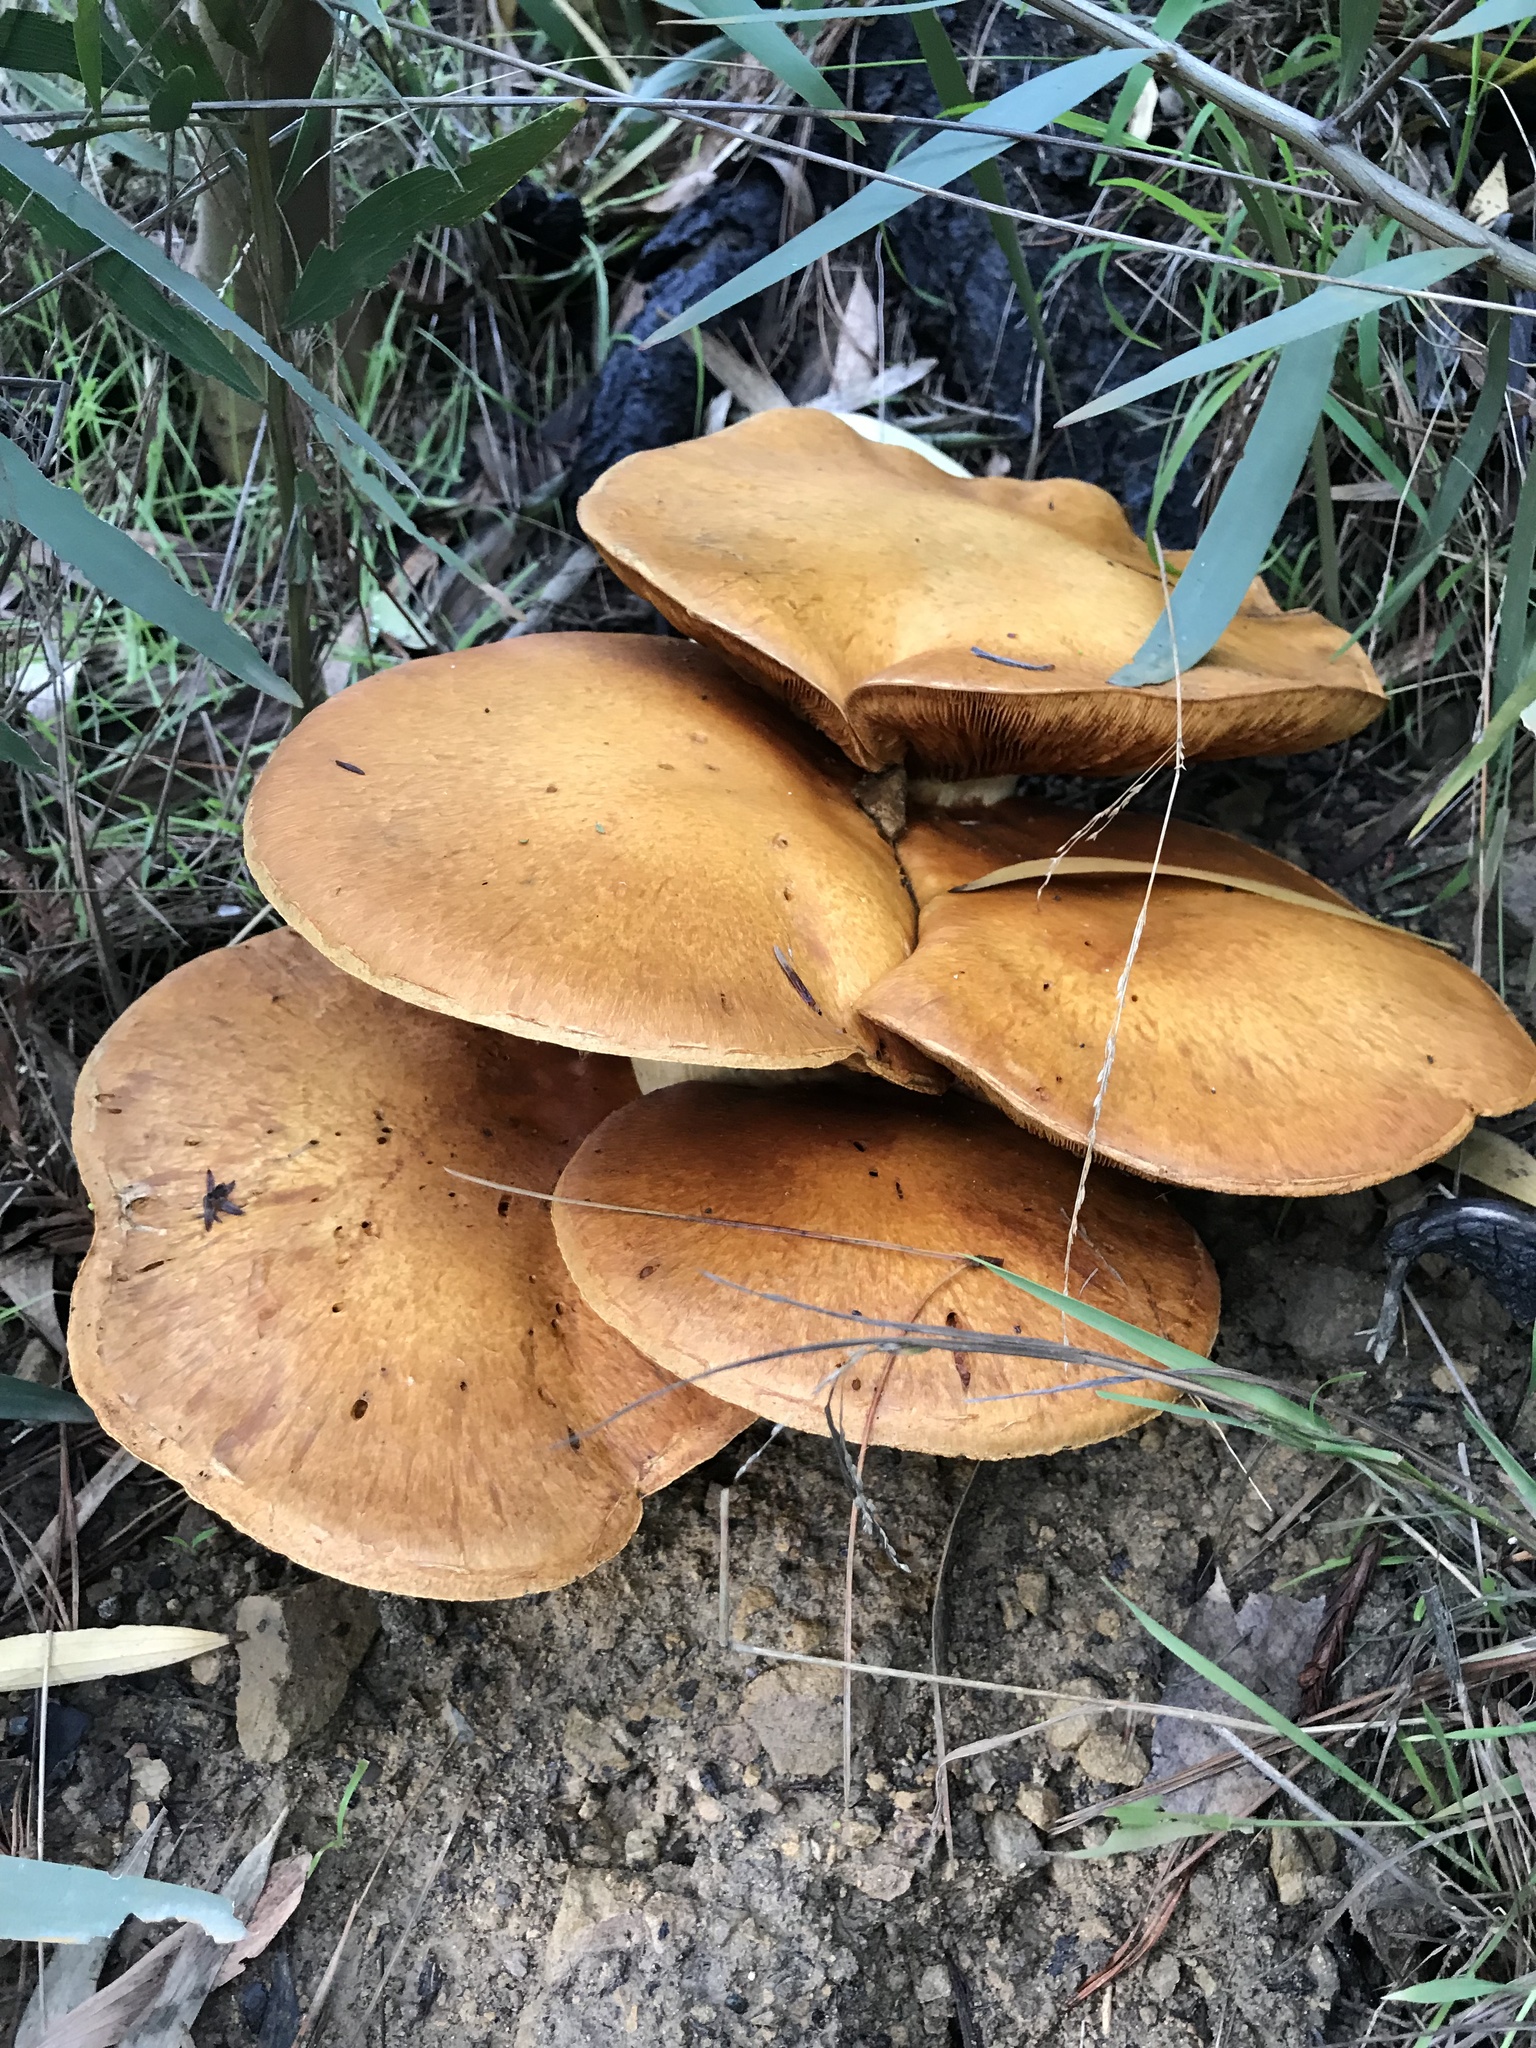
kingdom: Fungi
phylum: Basidiomycota
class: Agaricomycetes
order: Agaricales
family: Hymenogastraceae
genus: Gymnopilus
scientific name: Gymnopilus ventricosus
